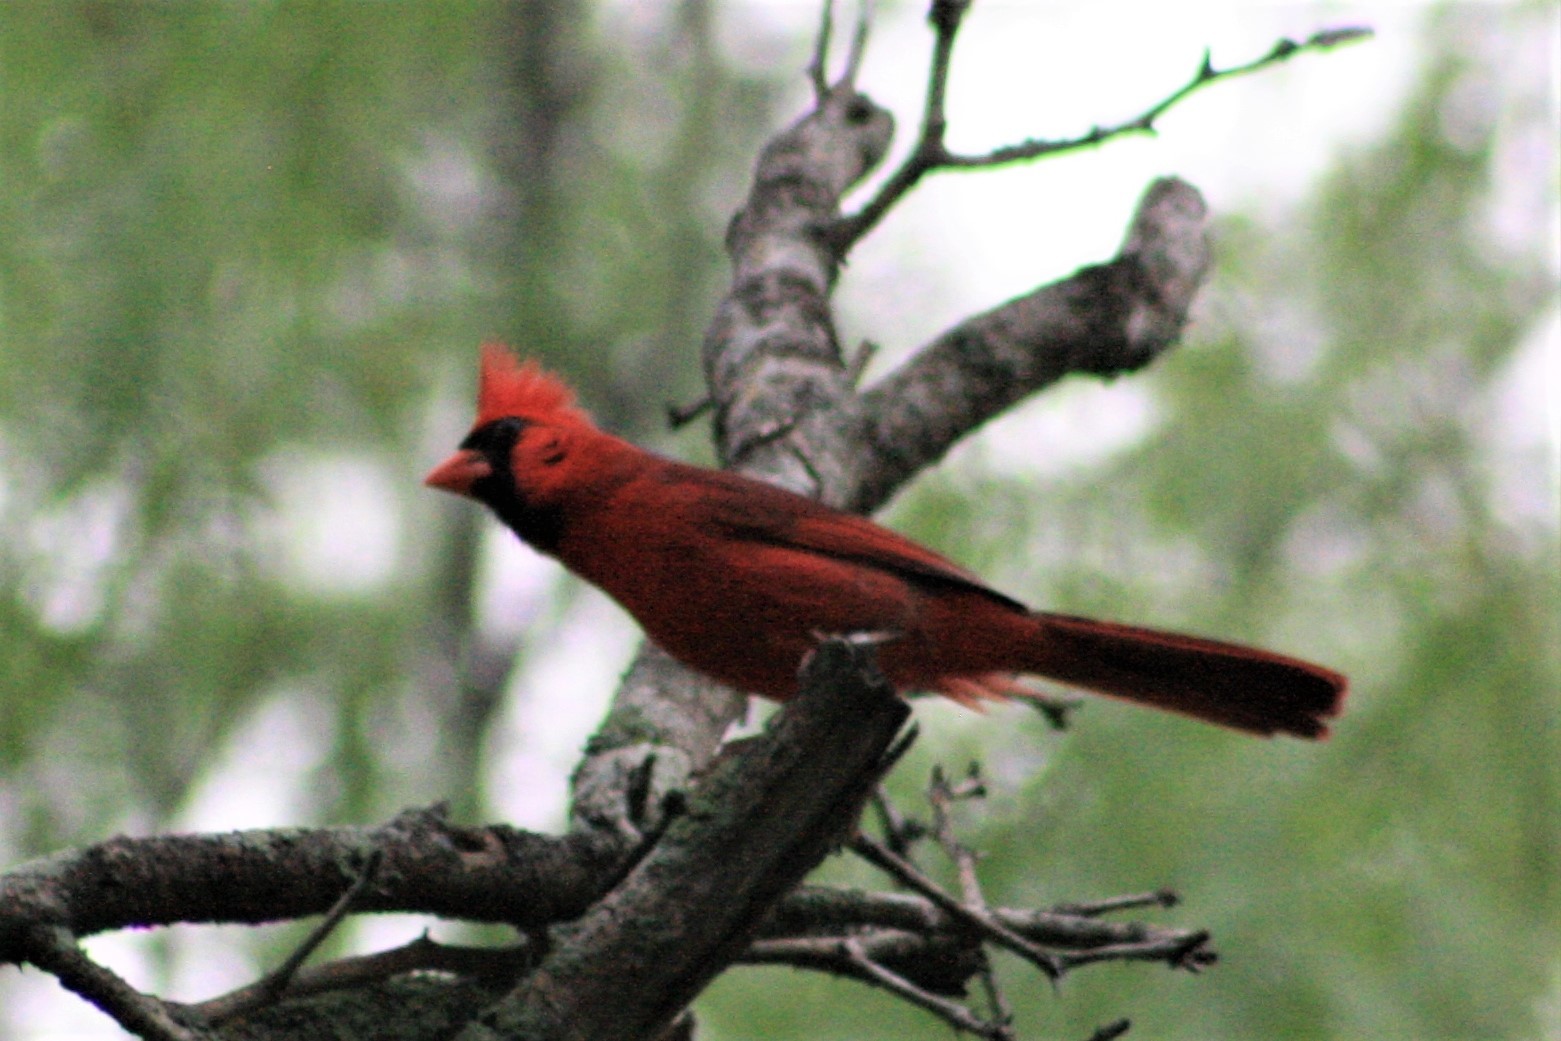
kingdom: Animalia
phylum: Chordata
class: Aves
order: Passeriformes
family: Cardinalidae
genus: Cardinalis
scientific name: Cardinalis cardinalis
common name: Northern cardinal
